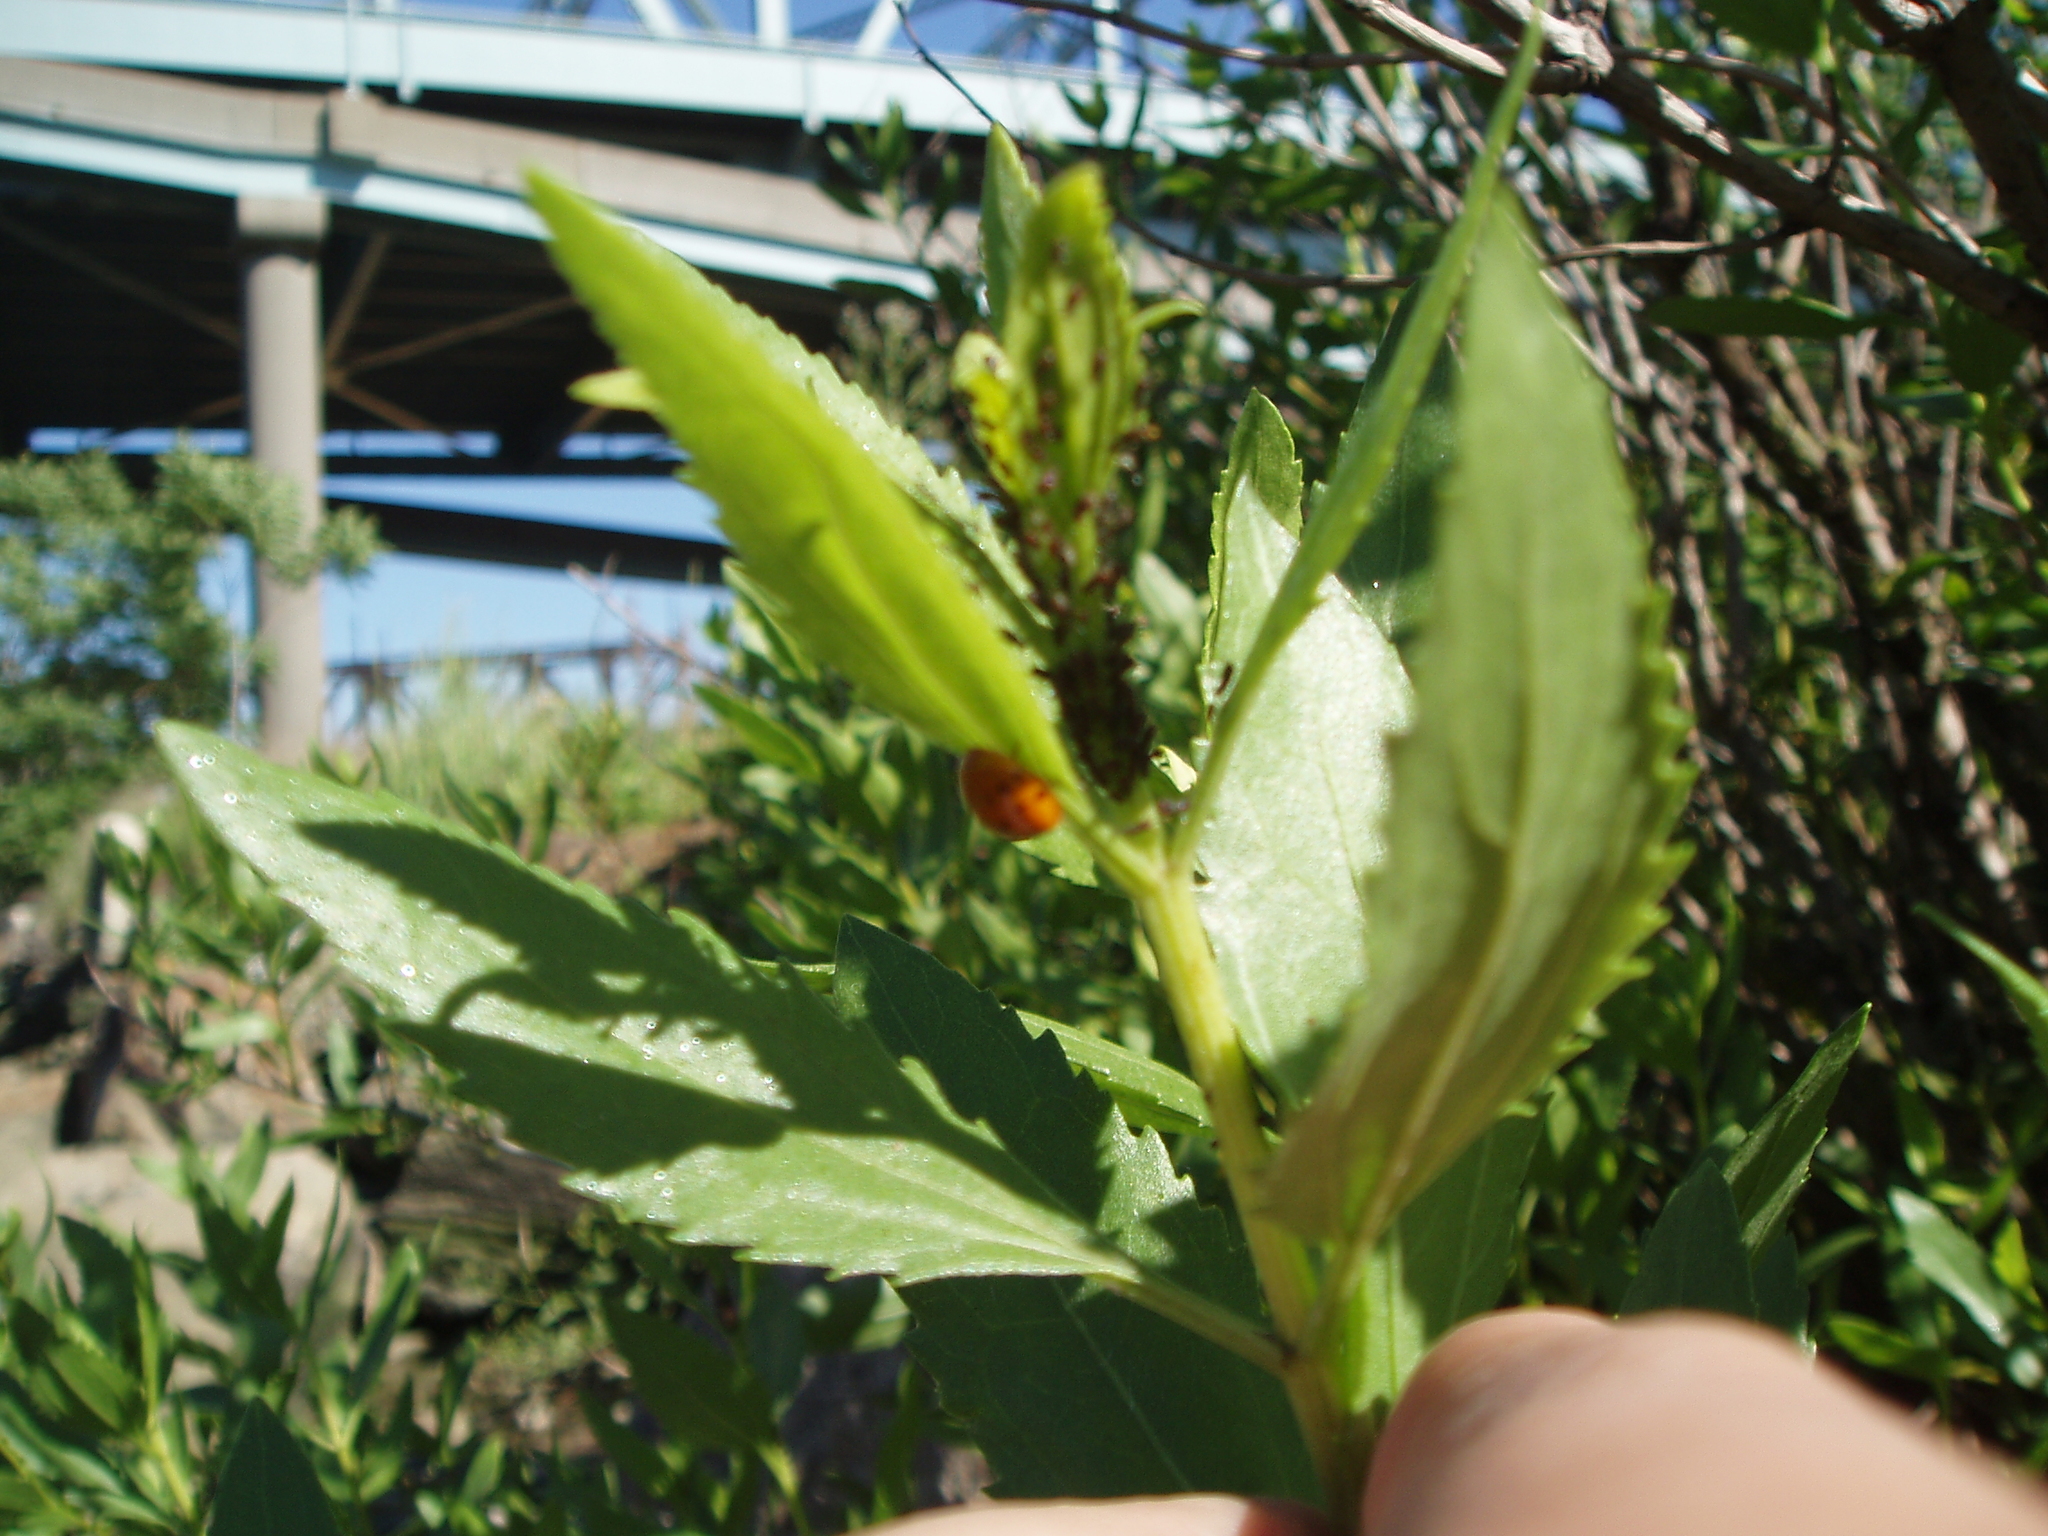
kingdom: Plantae
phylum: Tracheophyta
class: Magnoliopsida
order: Asterales
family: Asteraceae
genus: Iva
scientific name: Iva frutescens
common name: Big-leaved marsh-elder
